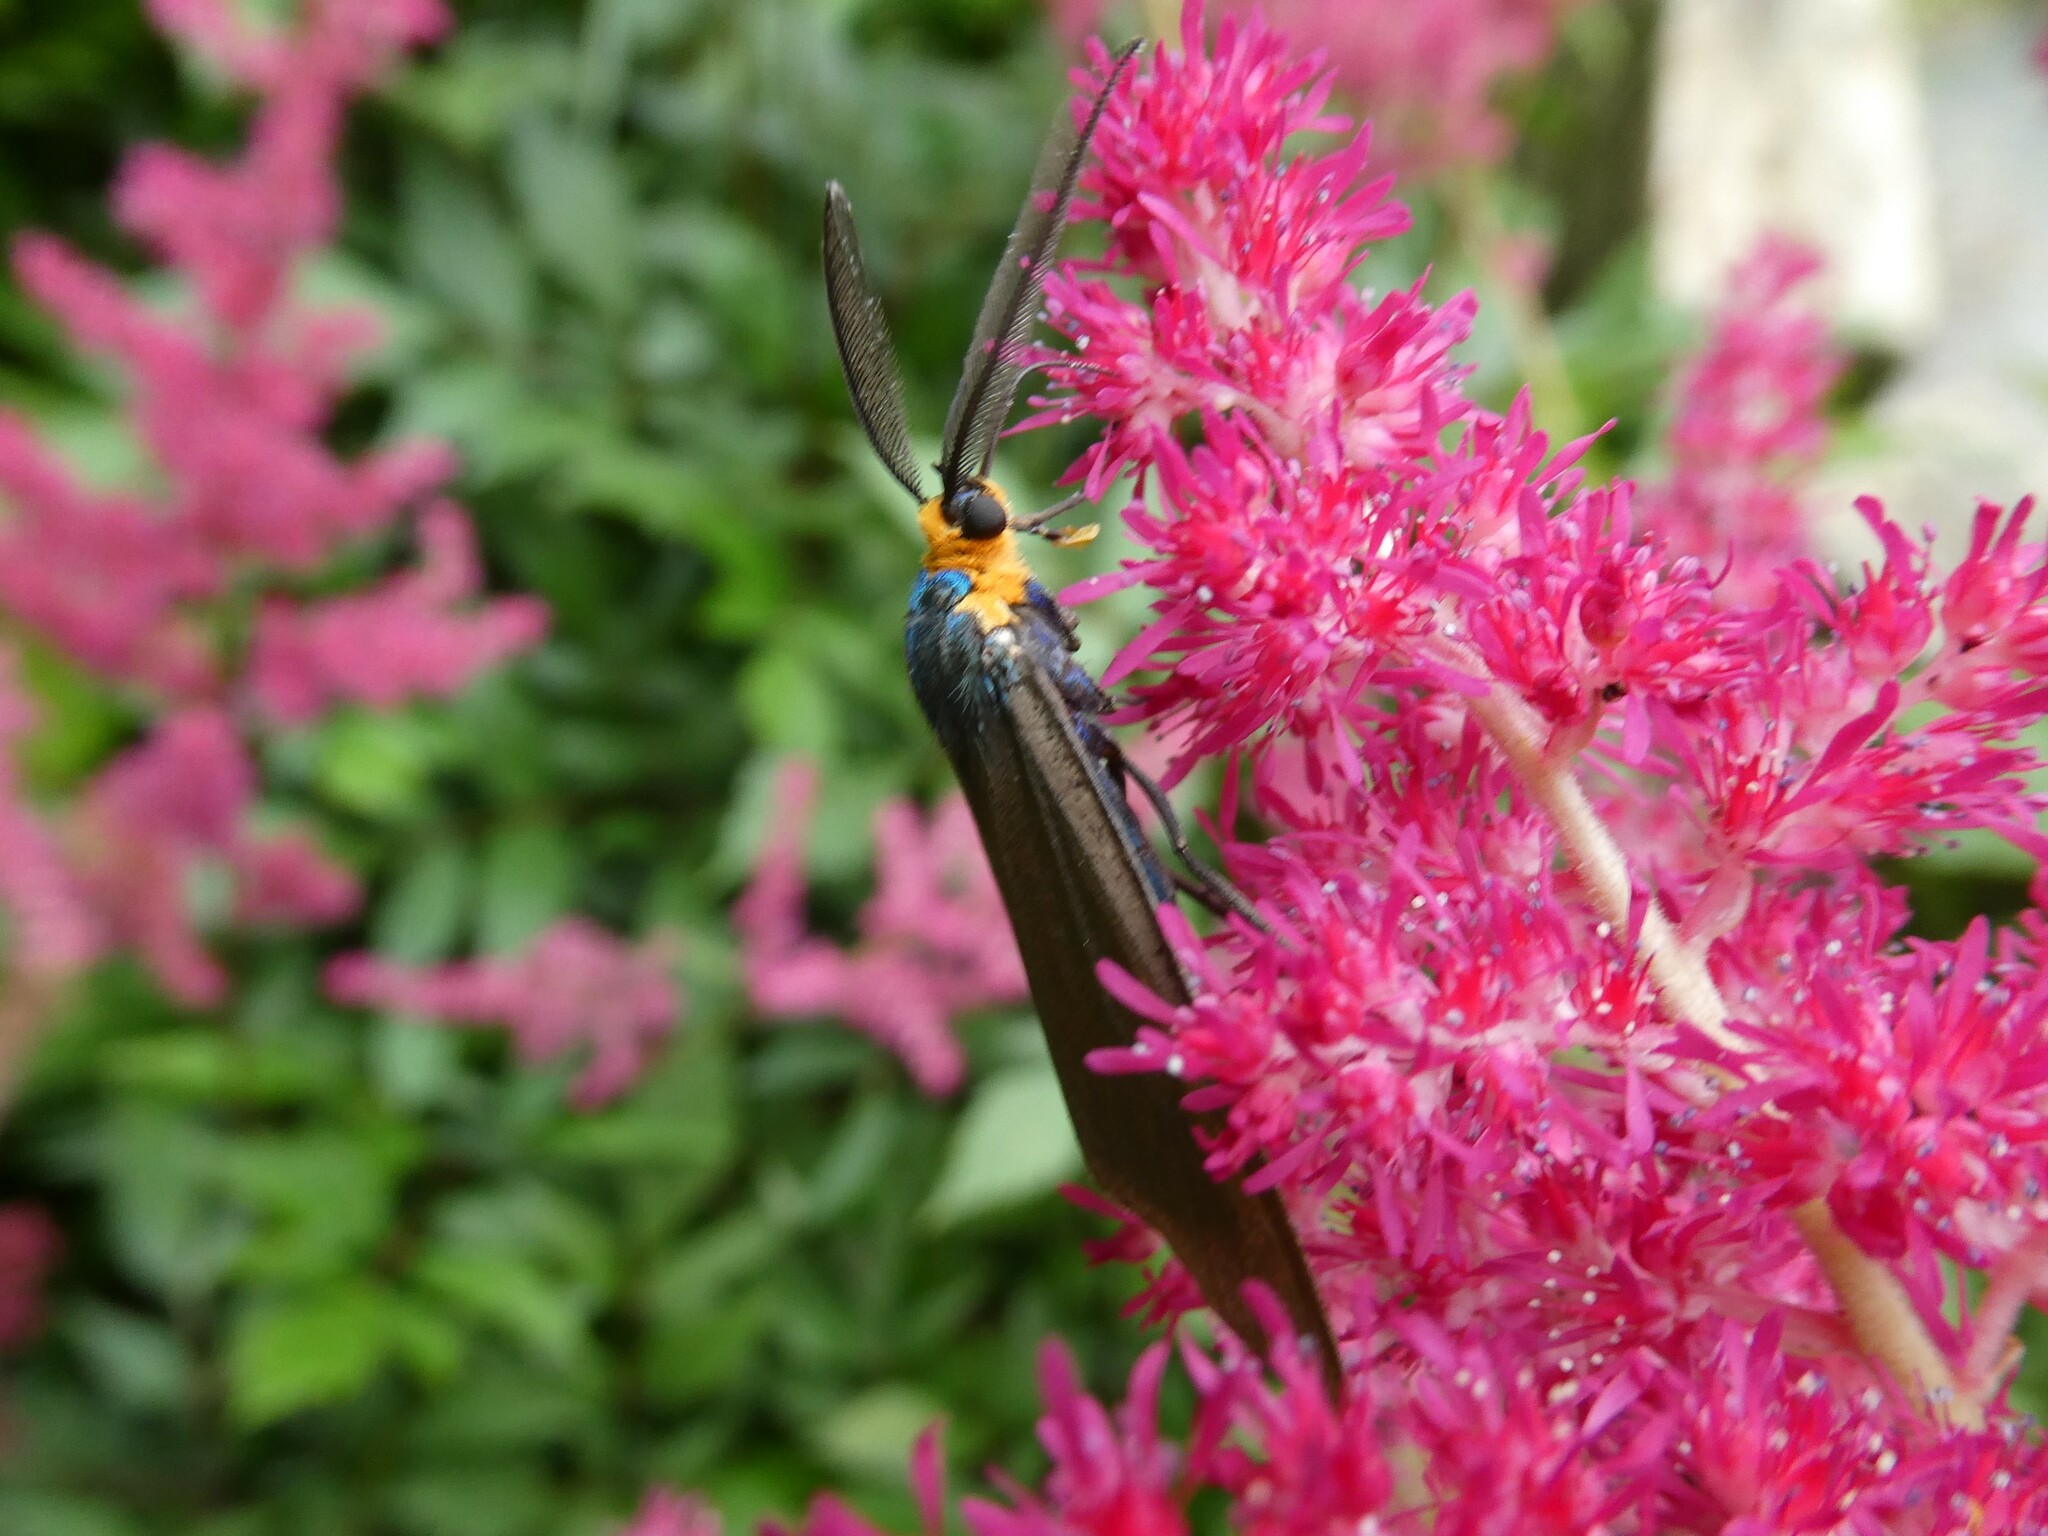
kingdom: Animalia
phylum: Arthropoda
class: Insecta
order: Lepidoptera
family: Erebidae
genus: Ctenucha
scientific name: Ctenucha virginica
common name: Virginia ctenucha moth
